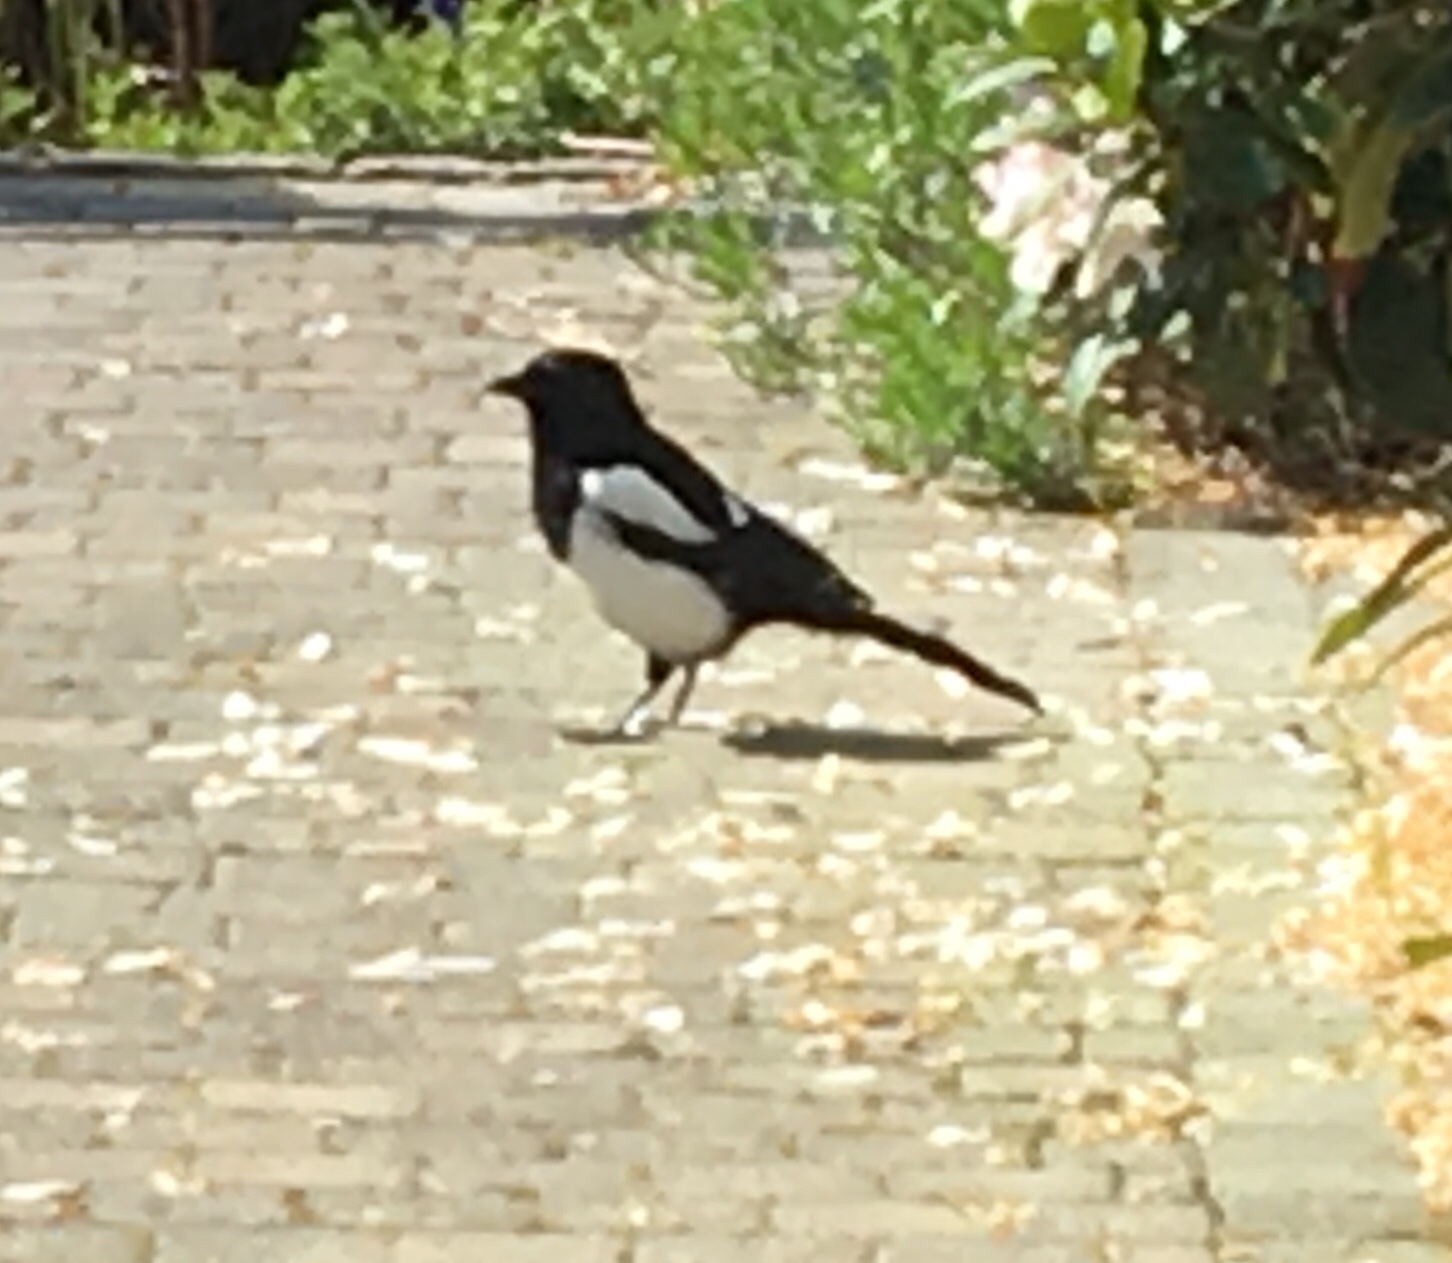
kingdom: Animalia
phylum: Chordata
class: Aves
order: Passeriformes
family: Corvidae
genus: Pica
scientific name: Pica pica
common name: Eurasian magpie
